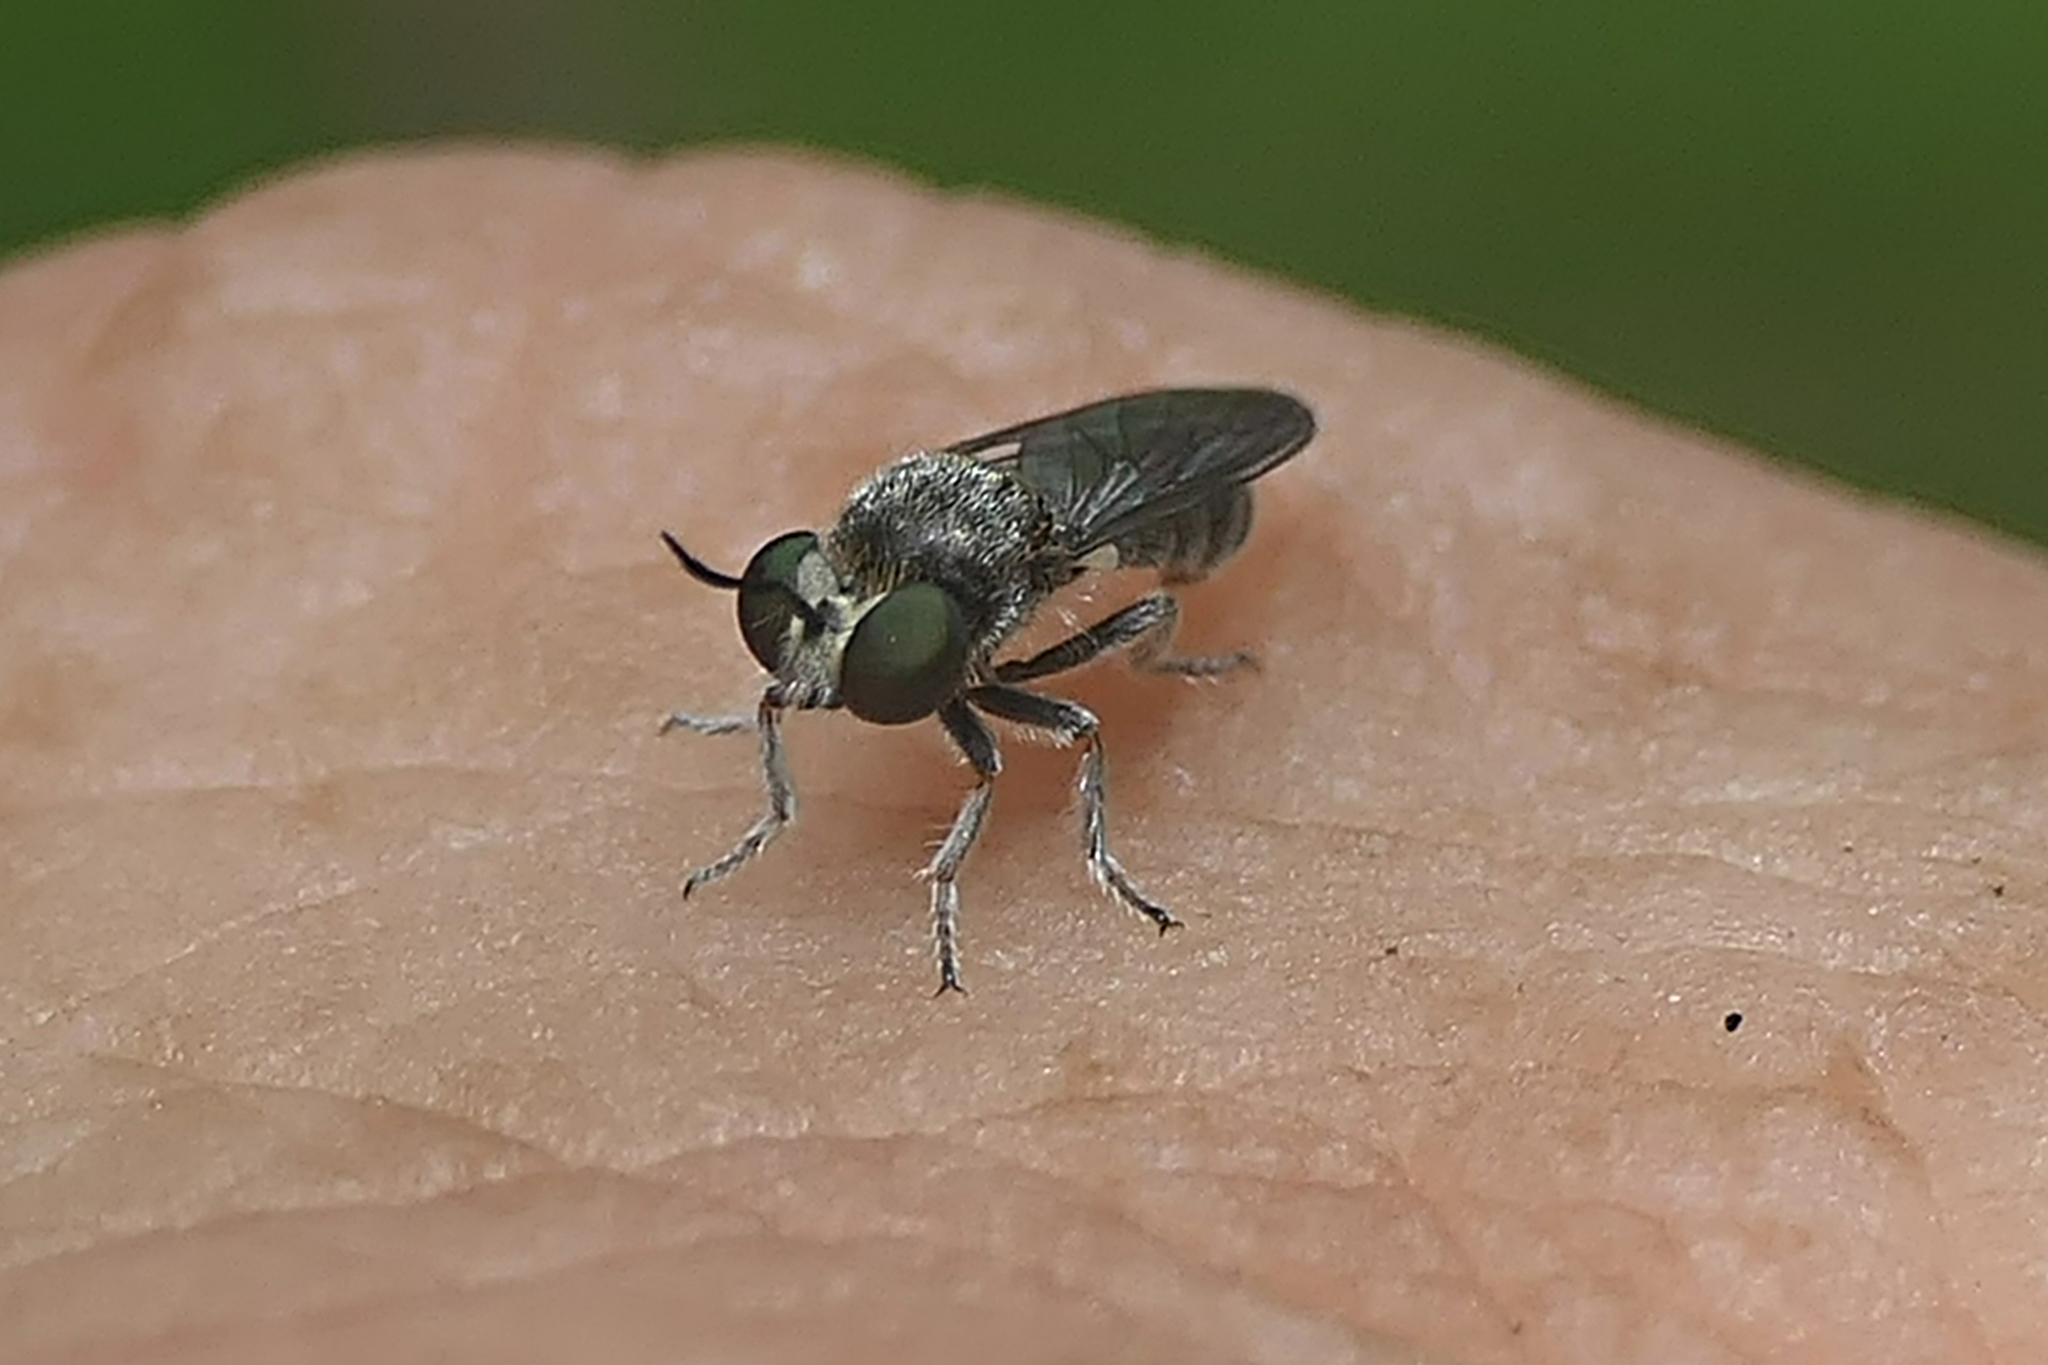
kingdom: Animalia
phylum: Arthropoda
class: Insecta
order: Diptera
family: Asilidae
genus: Cerotainia
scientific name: Cerotainia albipilosa
